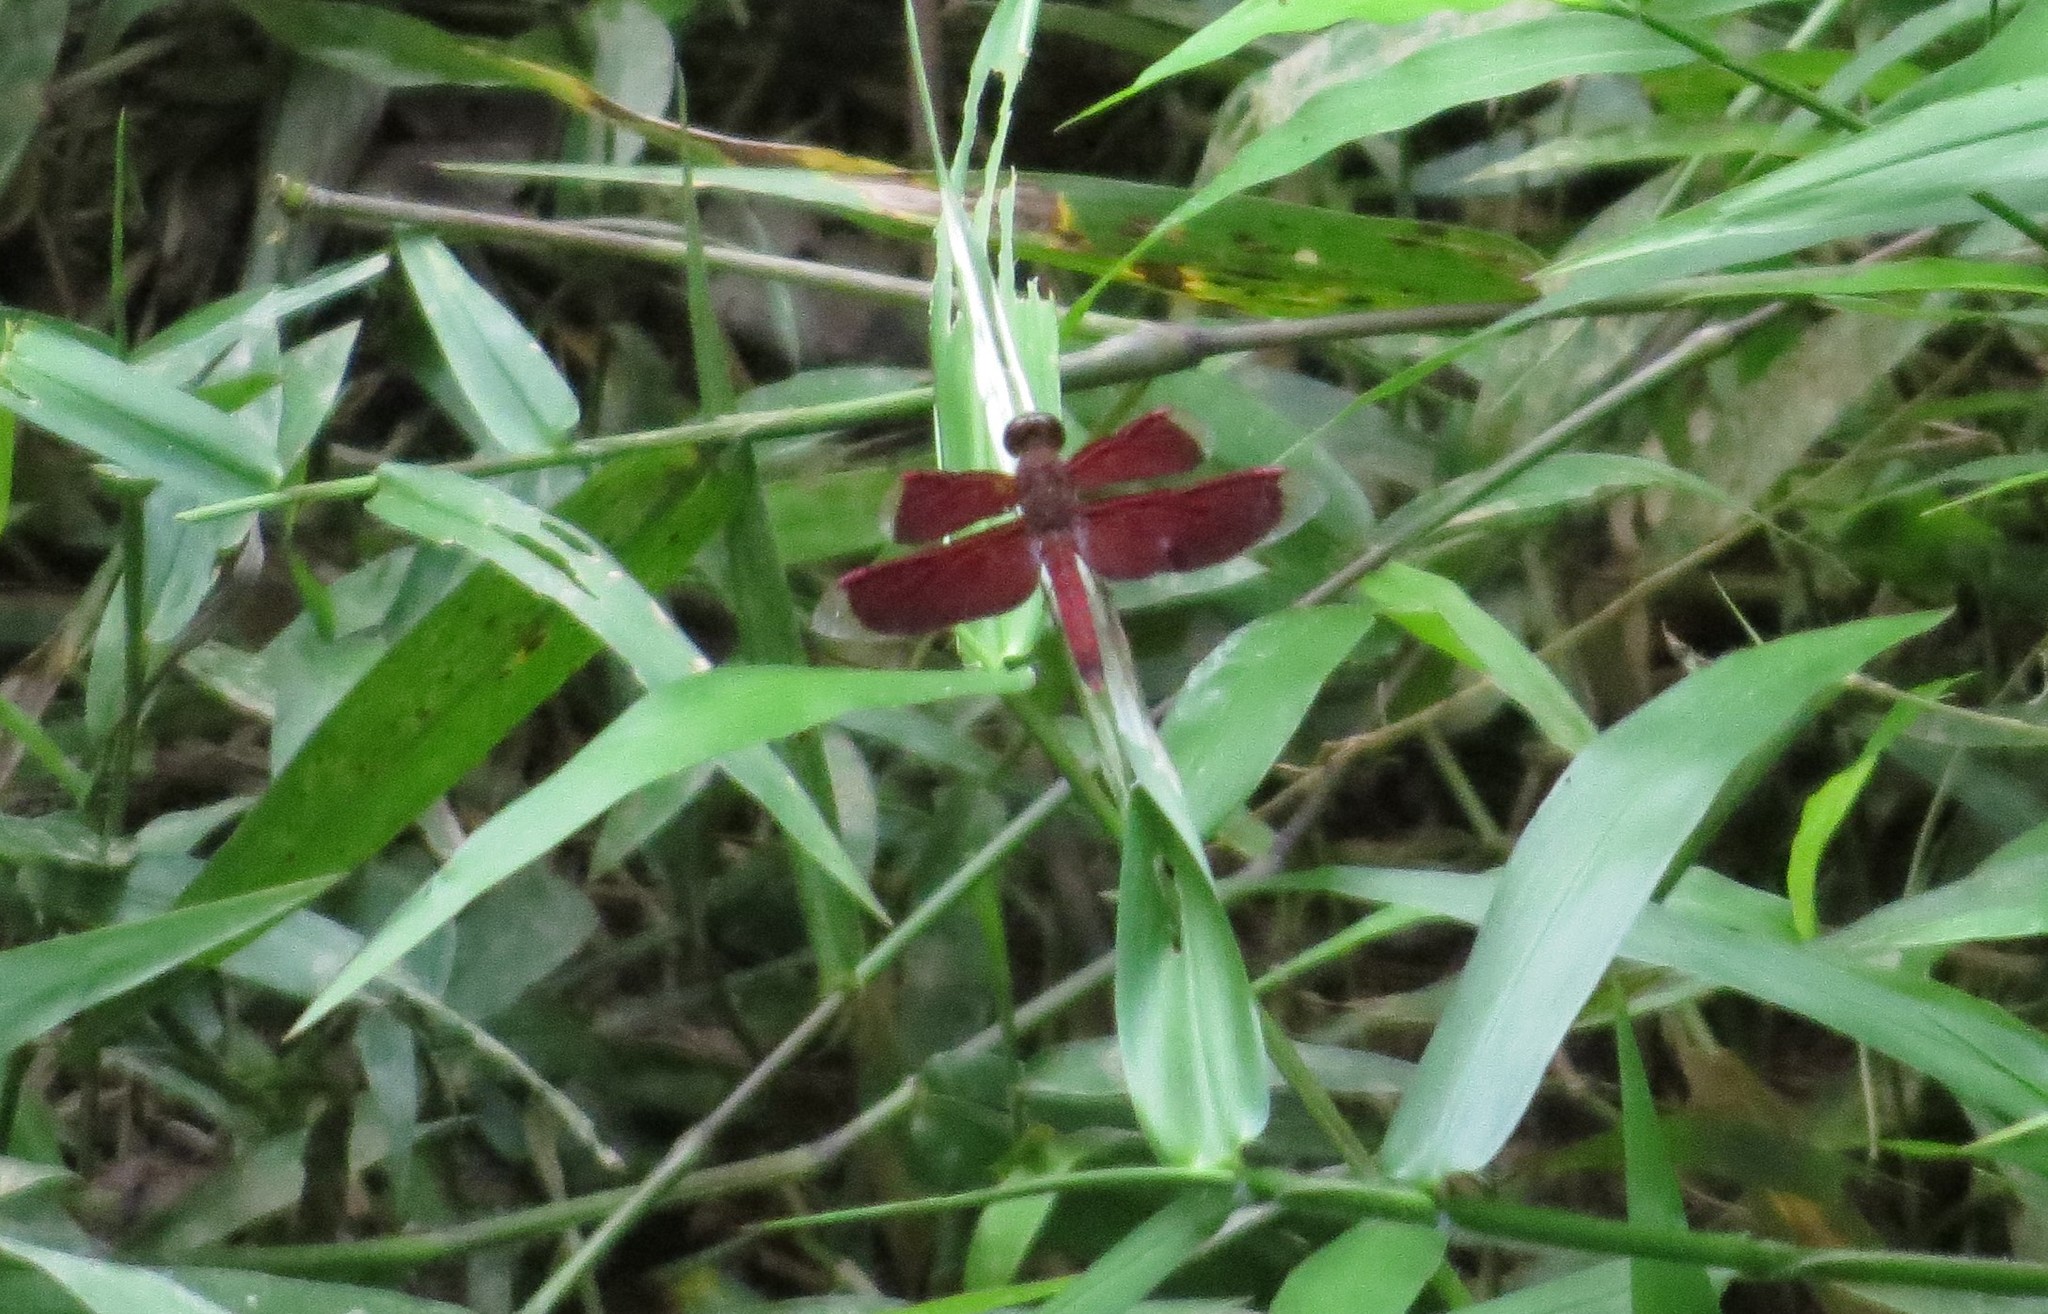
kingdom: Animalia
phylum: Arthropoda
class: Insecta
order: Odonata
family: Libellulidae
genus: Neurothemis
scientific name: Neurothemis fluctuans
